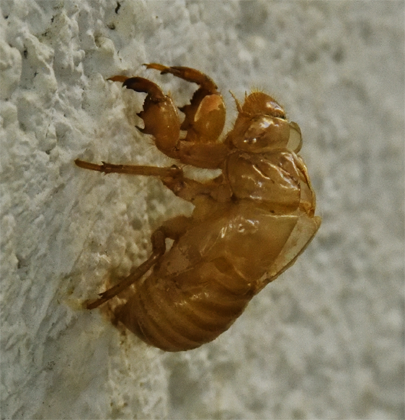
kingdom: Animalia
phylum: Arthropoda
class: Insecta
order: Hemiptera
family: Cicadidae
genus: Diceroprocta
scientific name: Diceroprocta apache
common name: Desert cicada
